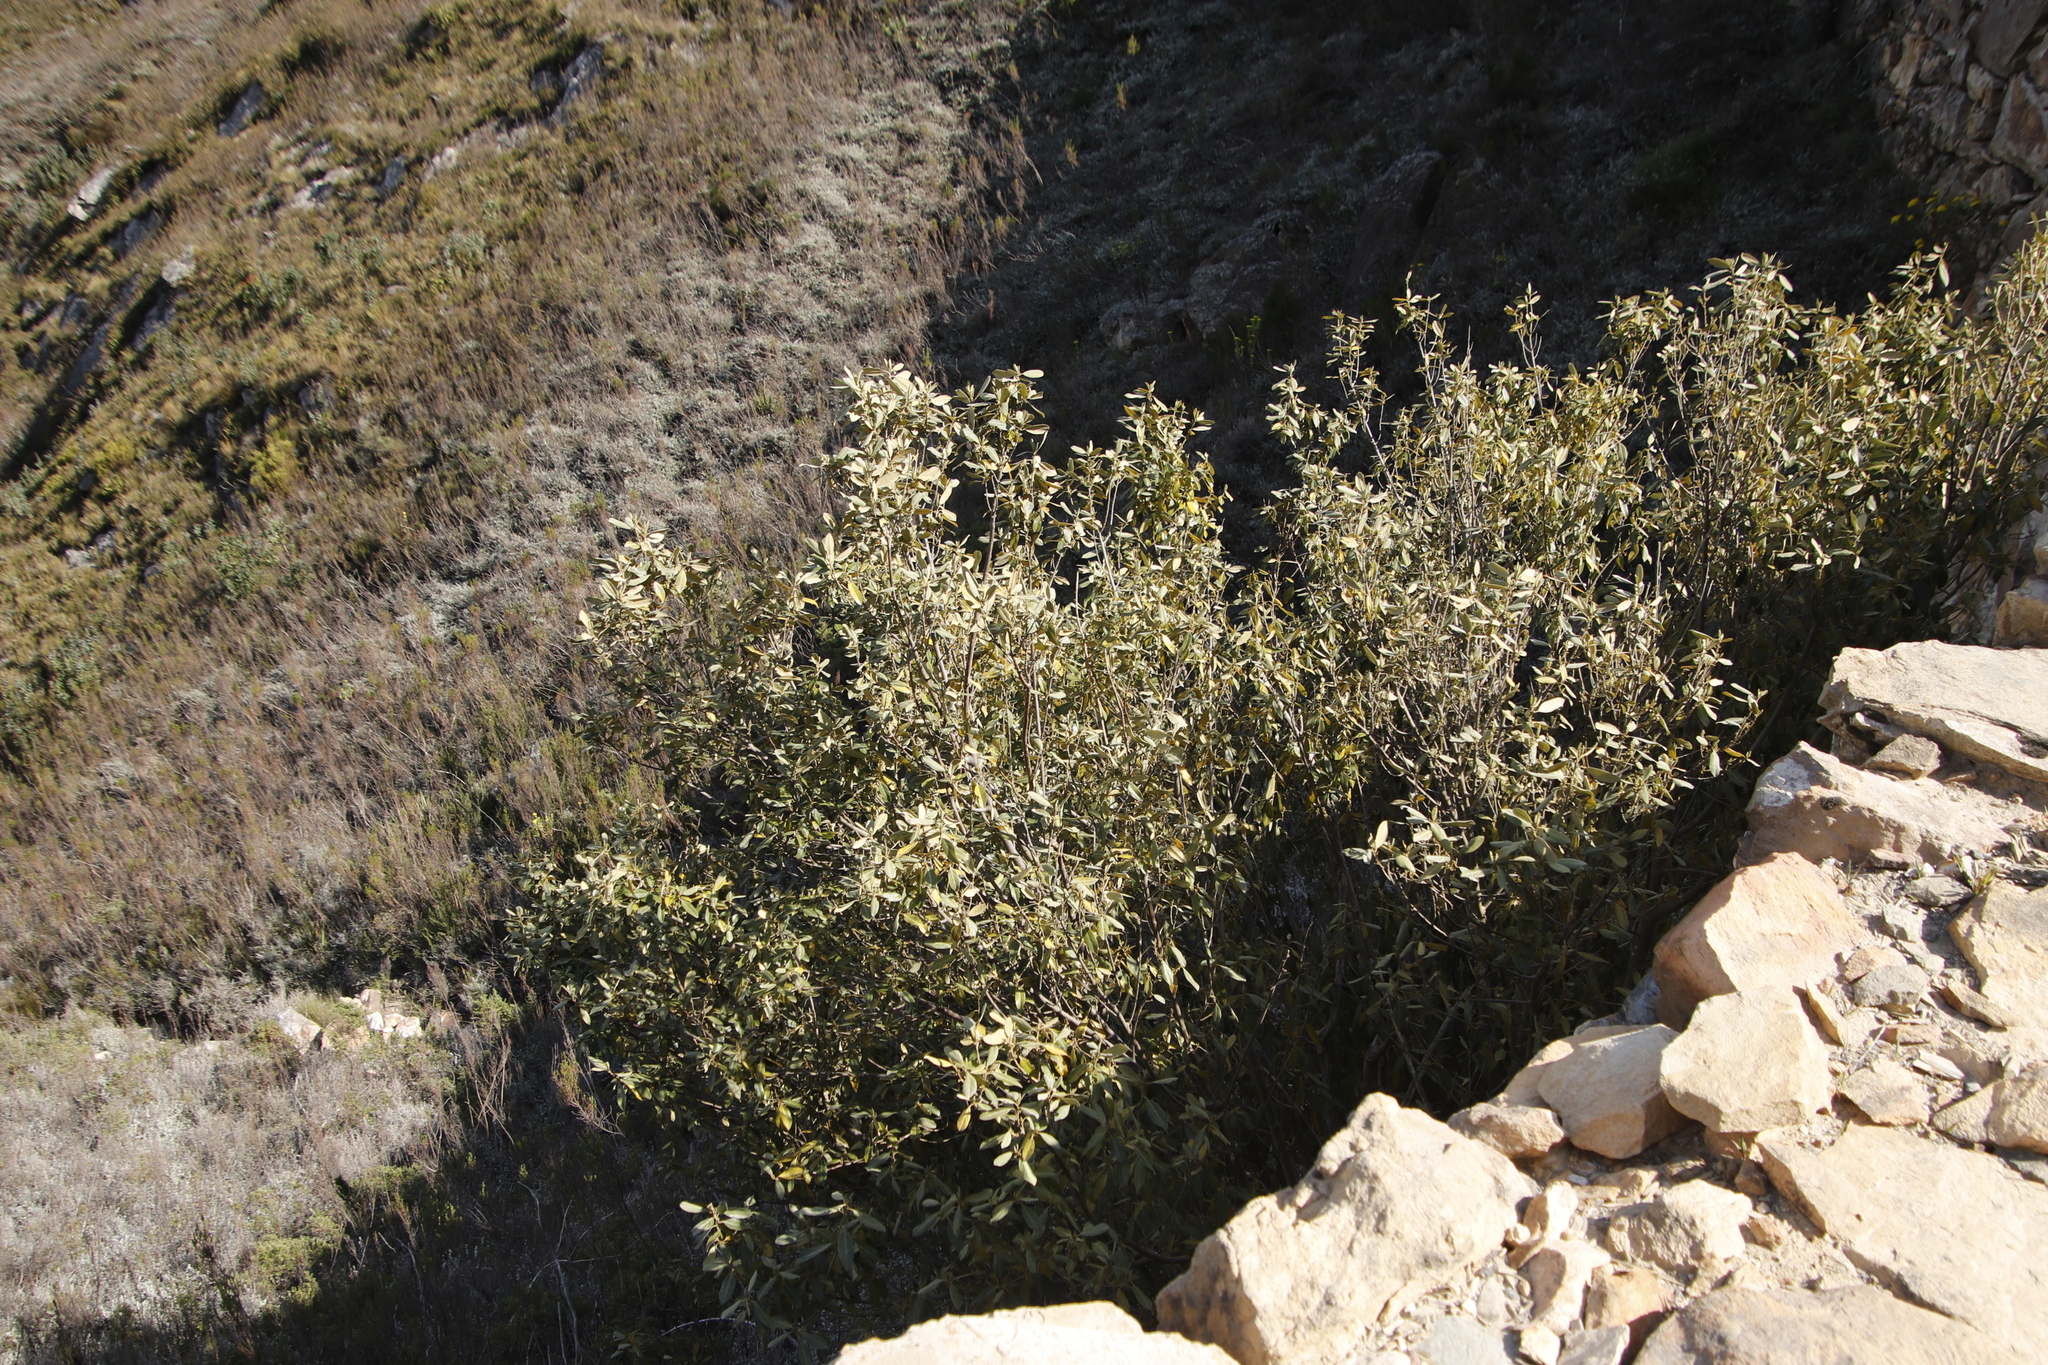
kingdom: Plantae
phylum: Tracheophyta
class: Magnoliopsida
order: Malpighiales
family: Achariaceae
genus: Kiggelaria
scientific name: Kiggelaria africana
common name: Wild peach
